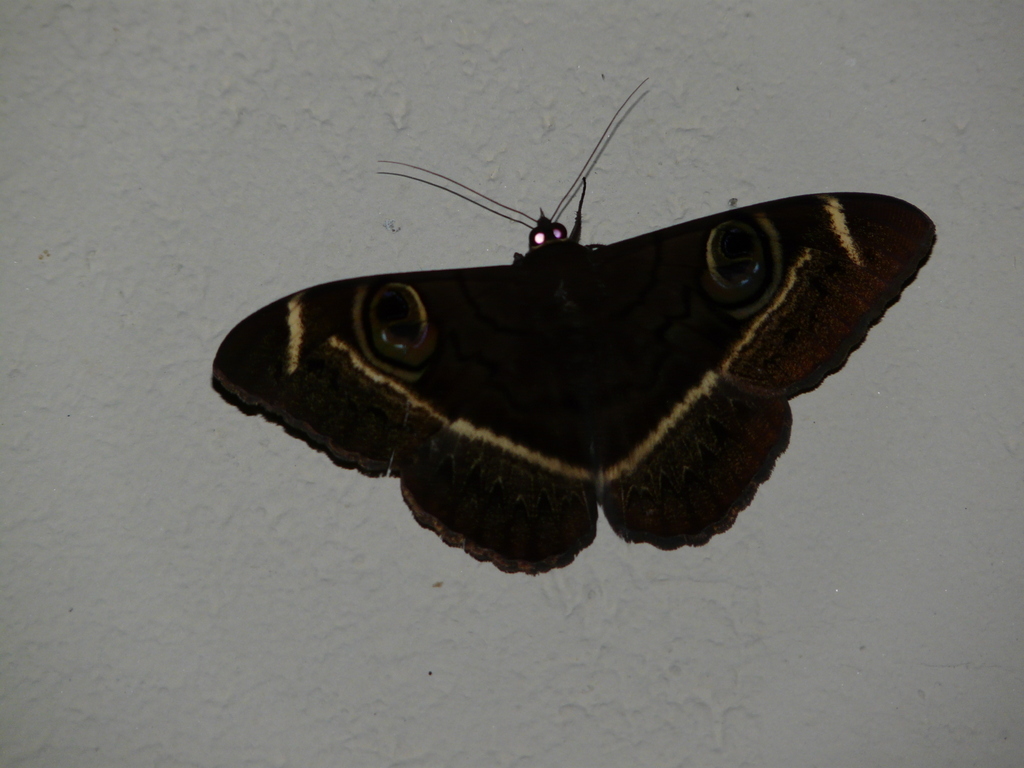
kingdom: Animalia
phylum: Arthropoda
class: Insecta
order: Lepidoptera
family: Erebidae
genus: Cyligramma
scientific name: Cyligramma latona
